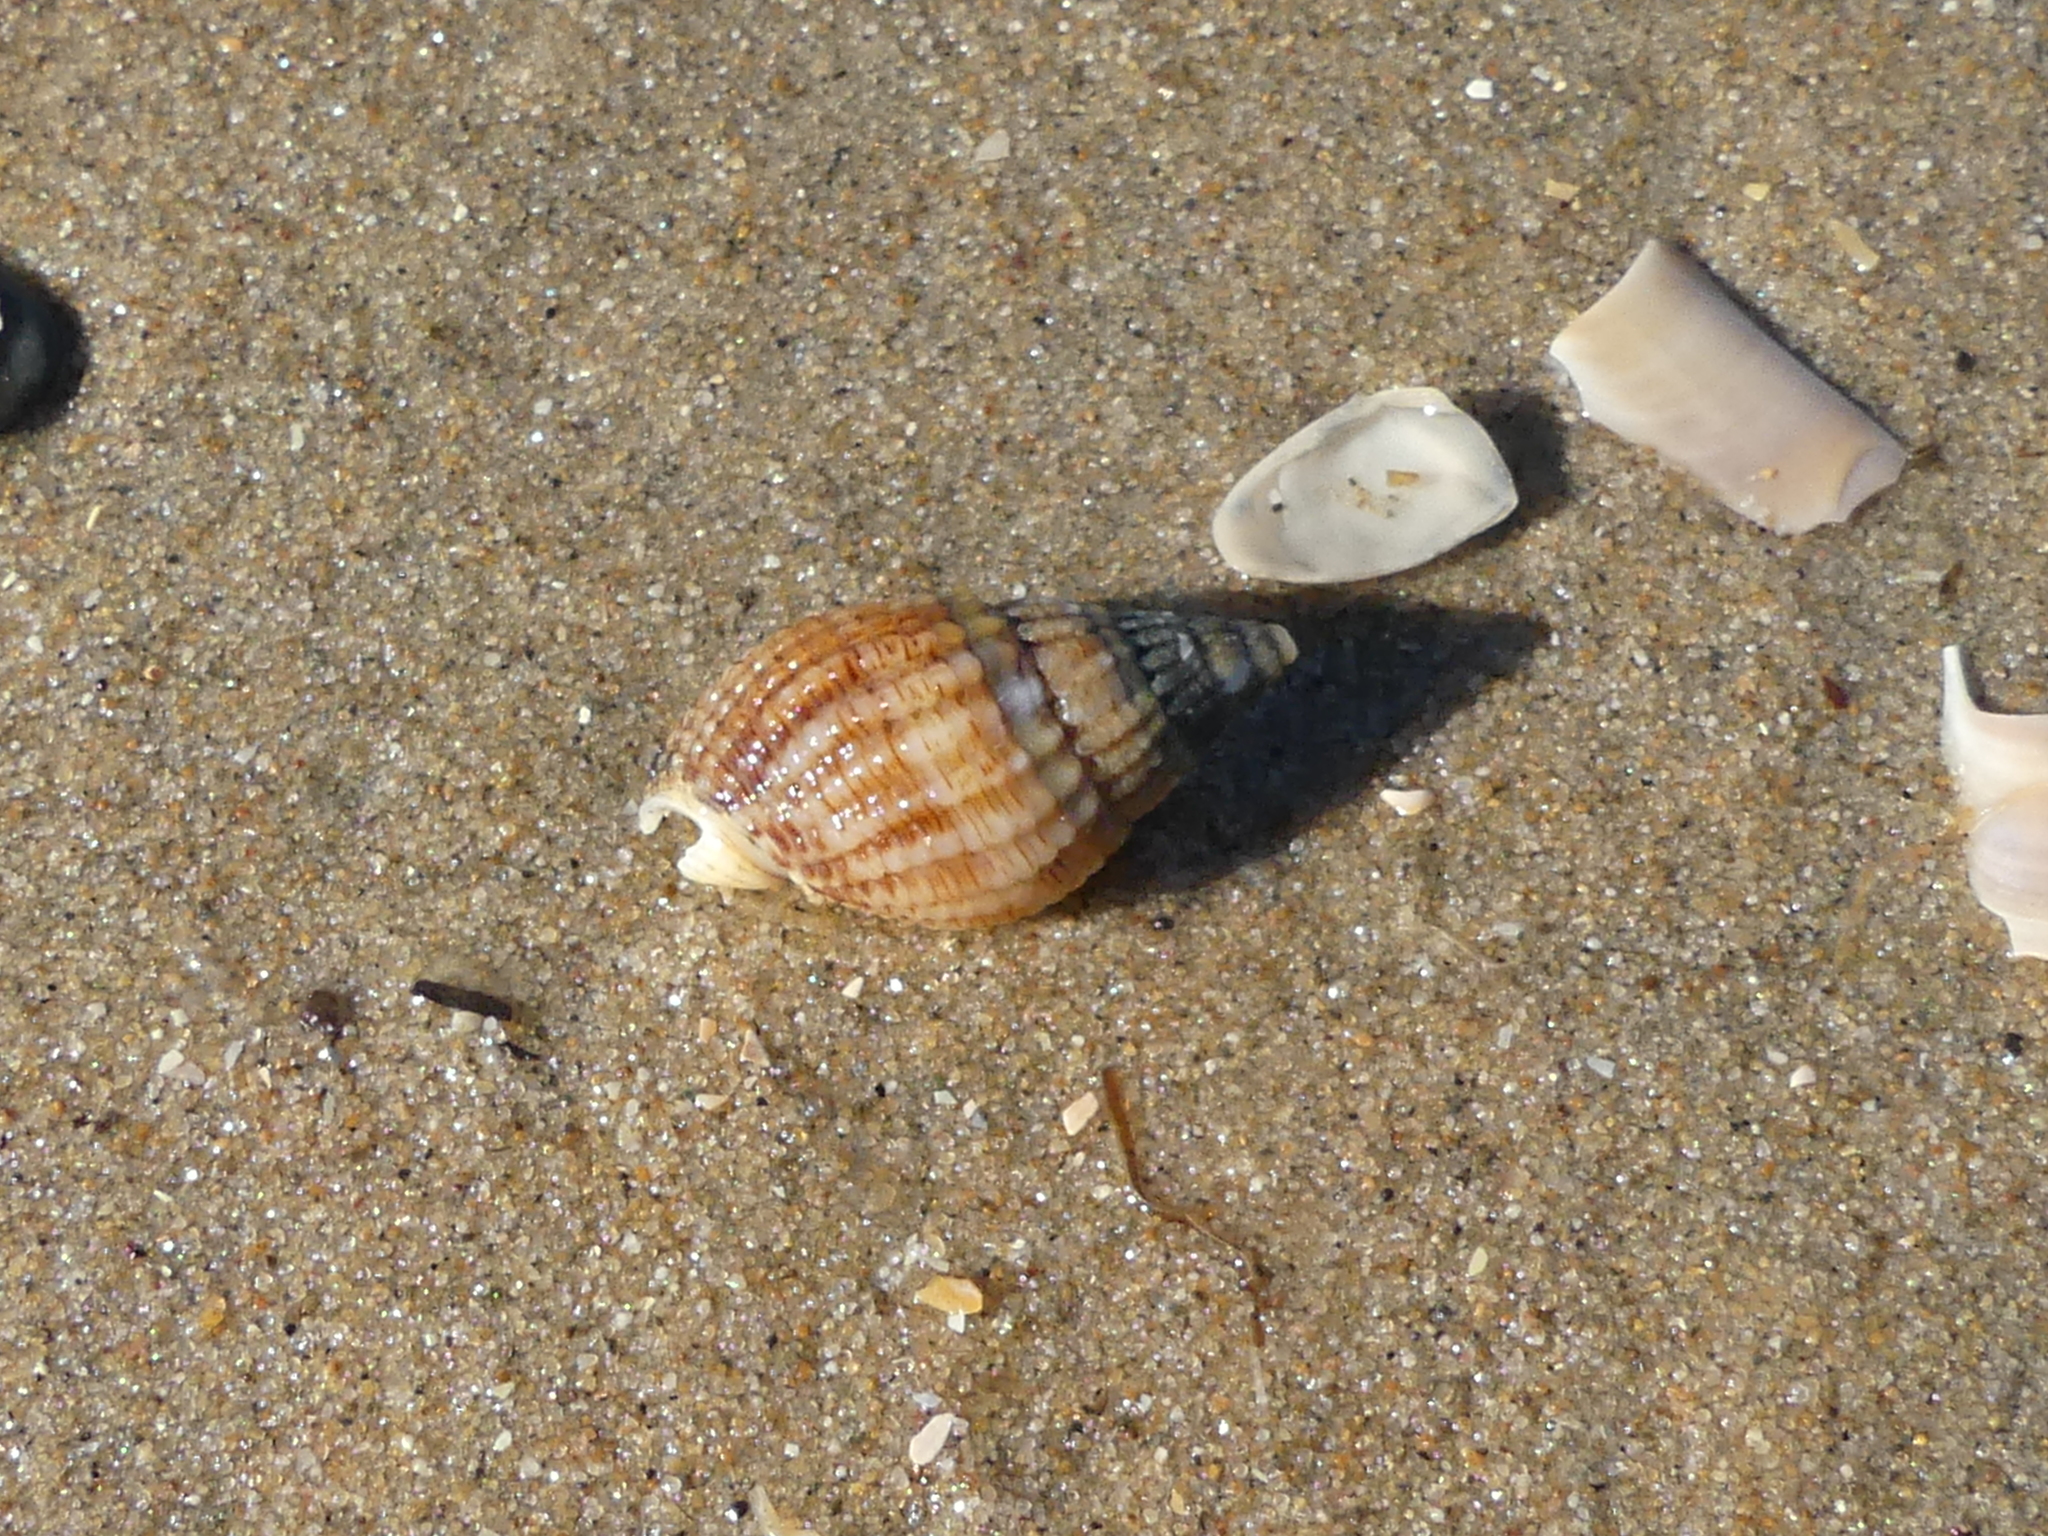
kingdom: Animalia
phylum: Mollusca
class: Gastropoda
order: Neogastropoda
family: Nassariidae
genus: Tritia
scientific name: Tritia reticulata
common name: Netted dog whelk
